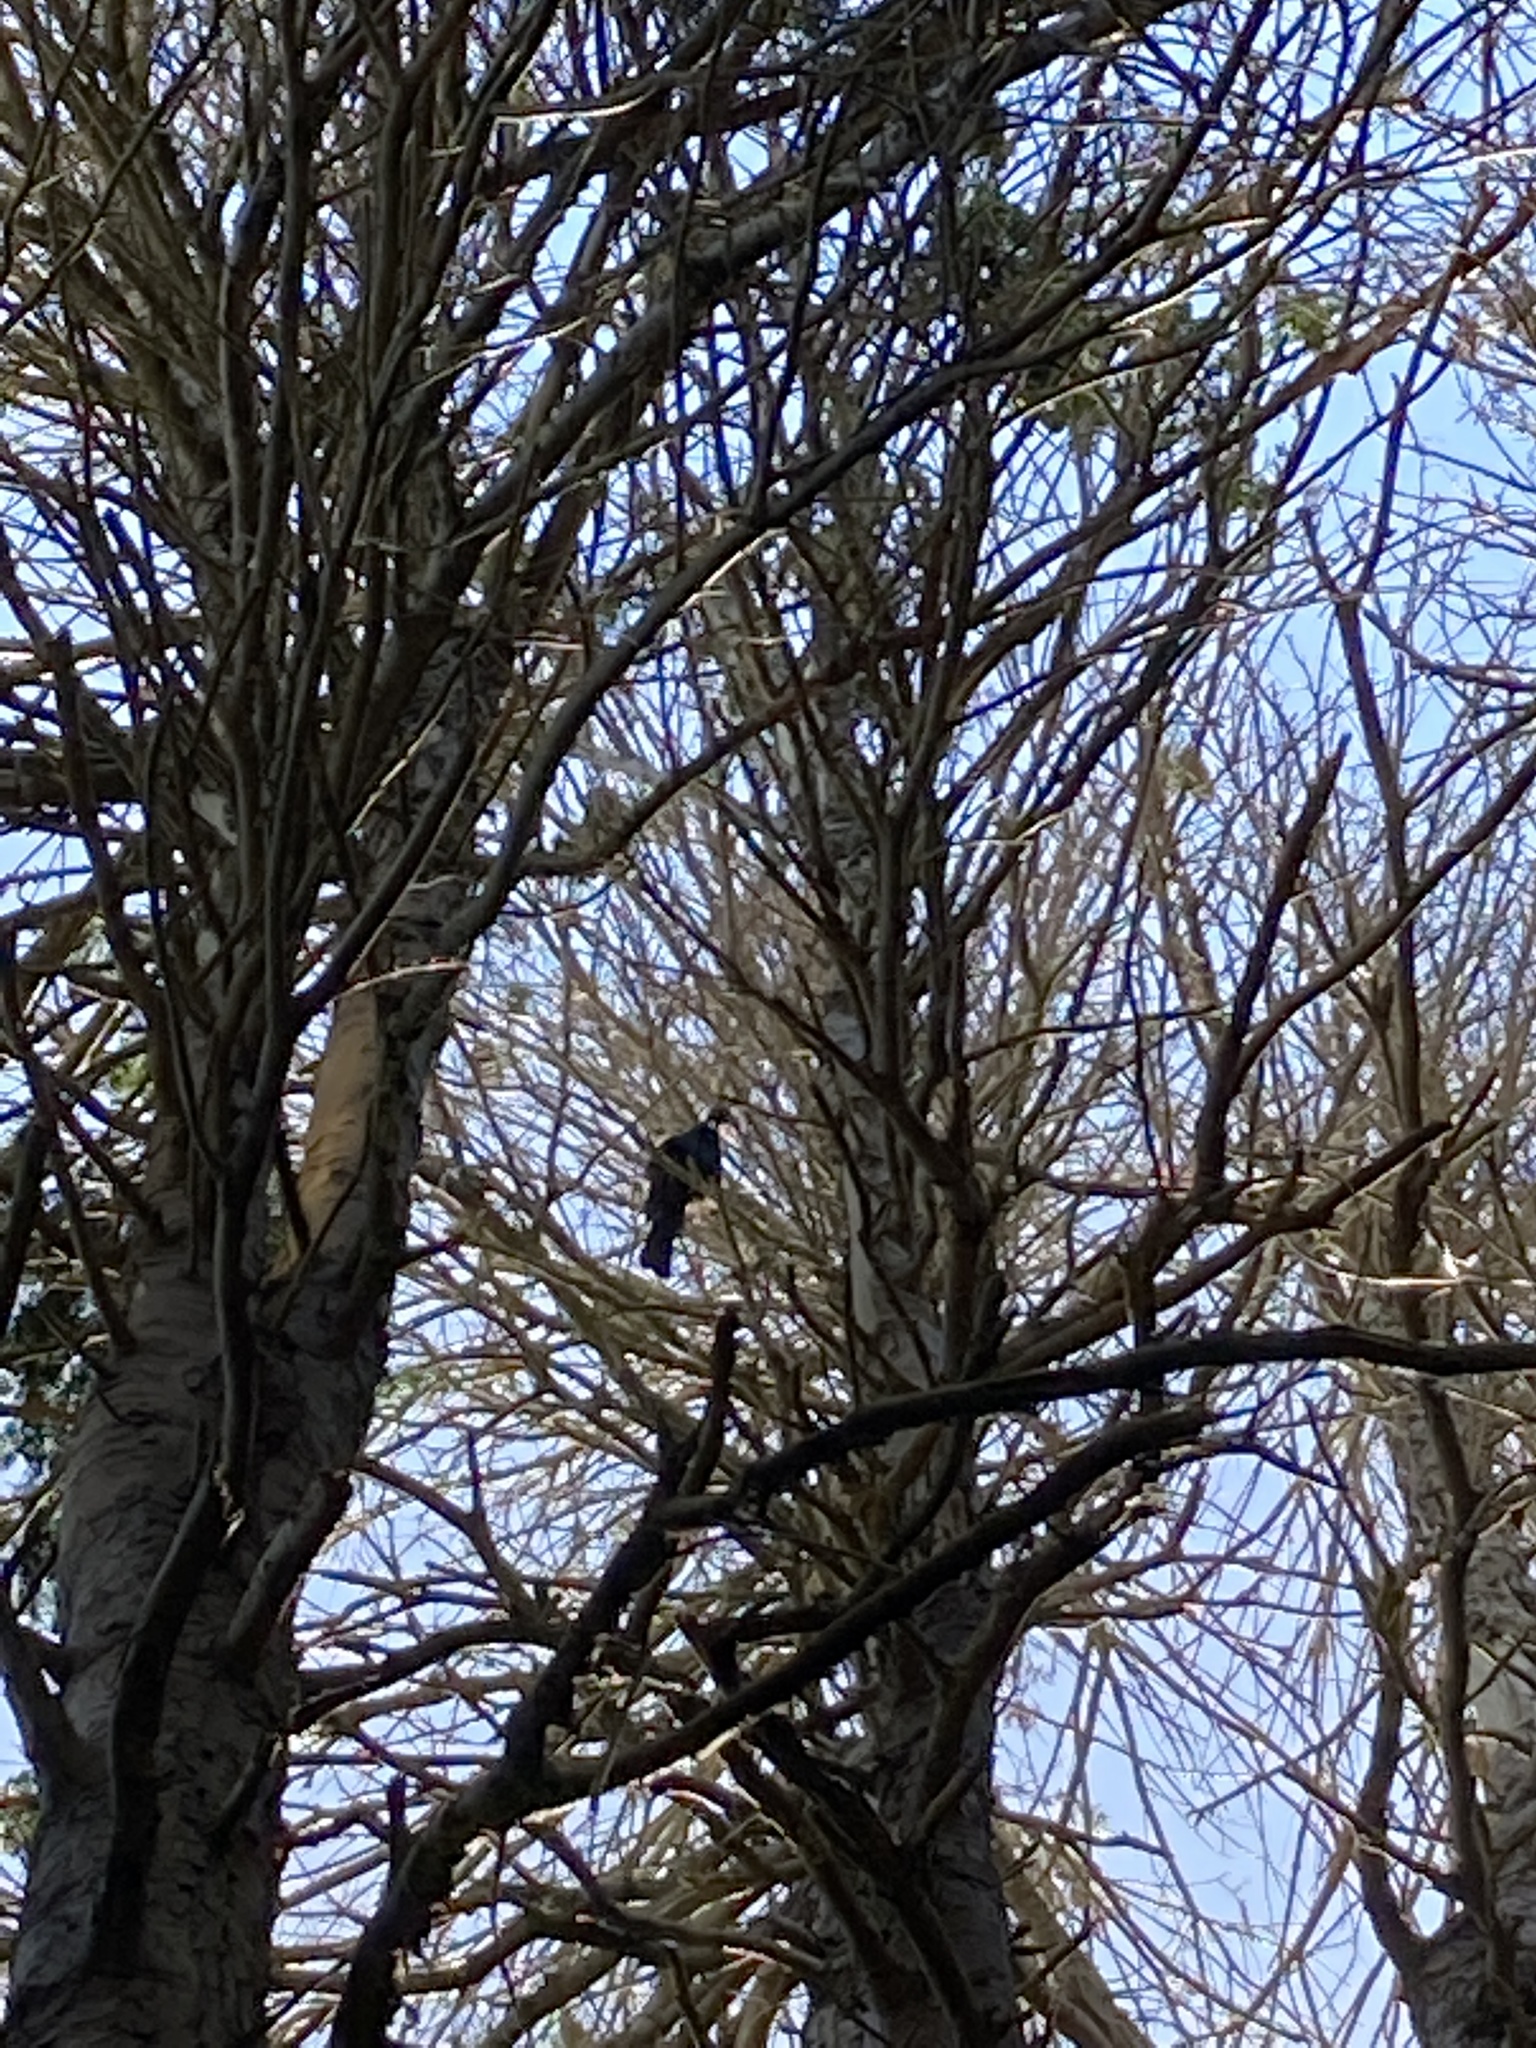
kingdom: Animalia
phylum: Chordata
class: Aves
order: Passeriformes
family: Meliphagidae
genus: Prosthemadera
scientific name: Prosthemadera novaeseelandiae
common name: Tui
